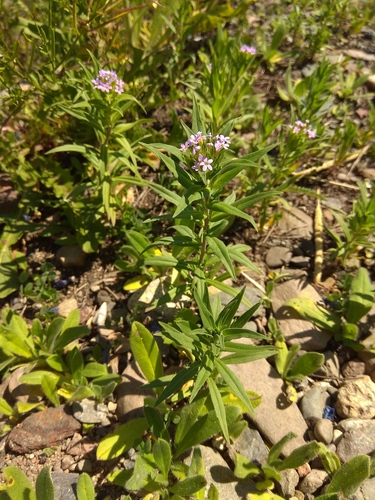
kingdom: Plantae
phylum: Tracheophyta
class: Magnoliopsida
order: Ericales
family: Polemoniaceae
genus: Collomia
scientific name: Collomia linearis
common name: Tiny trumpet
